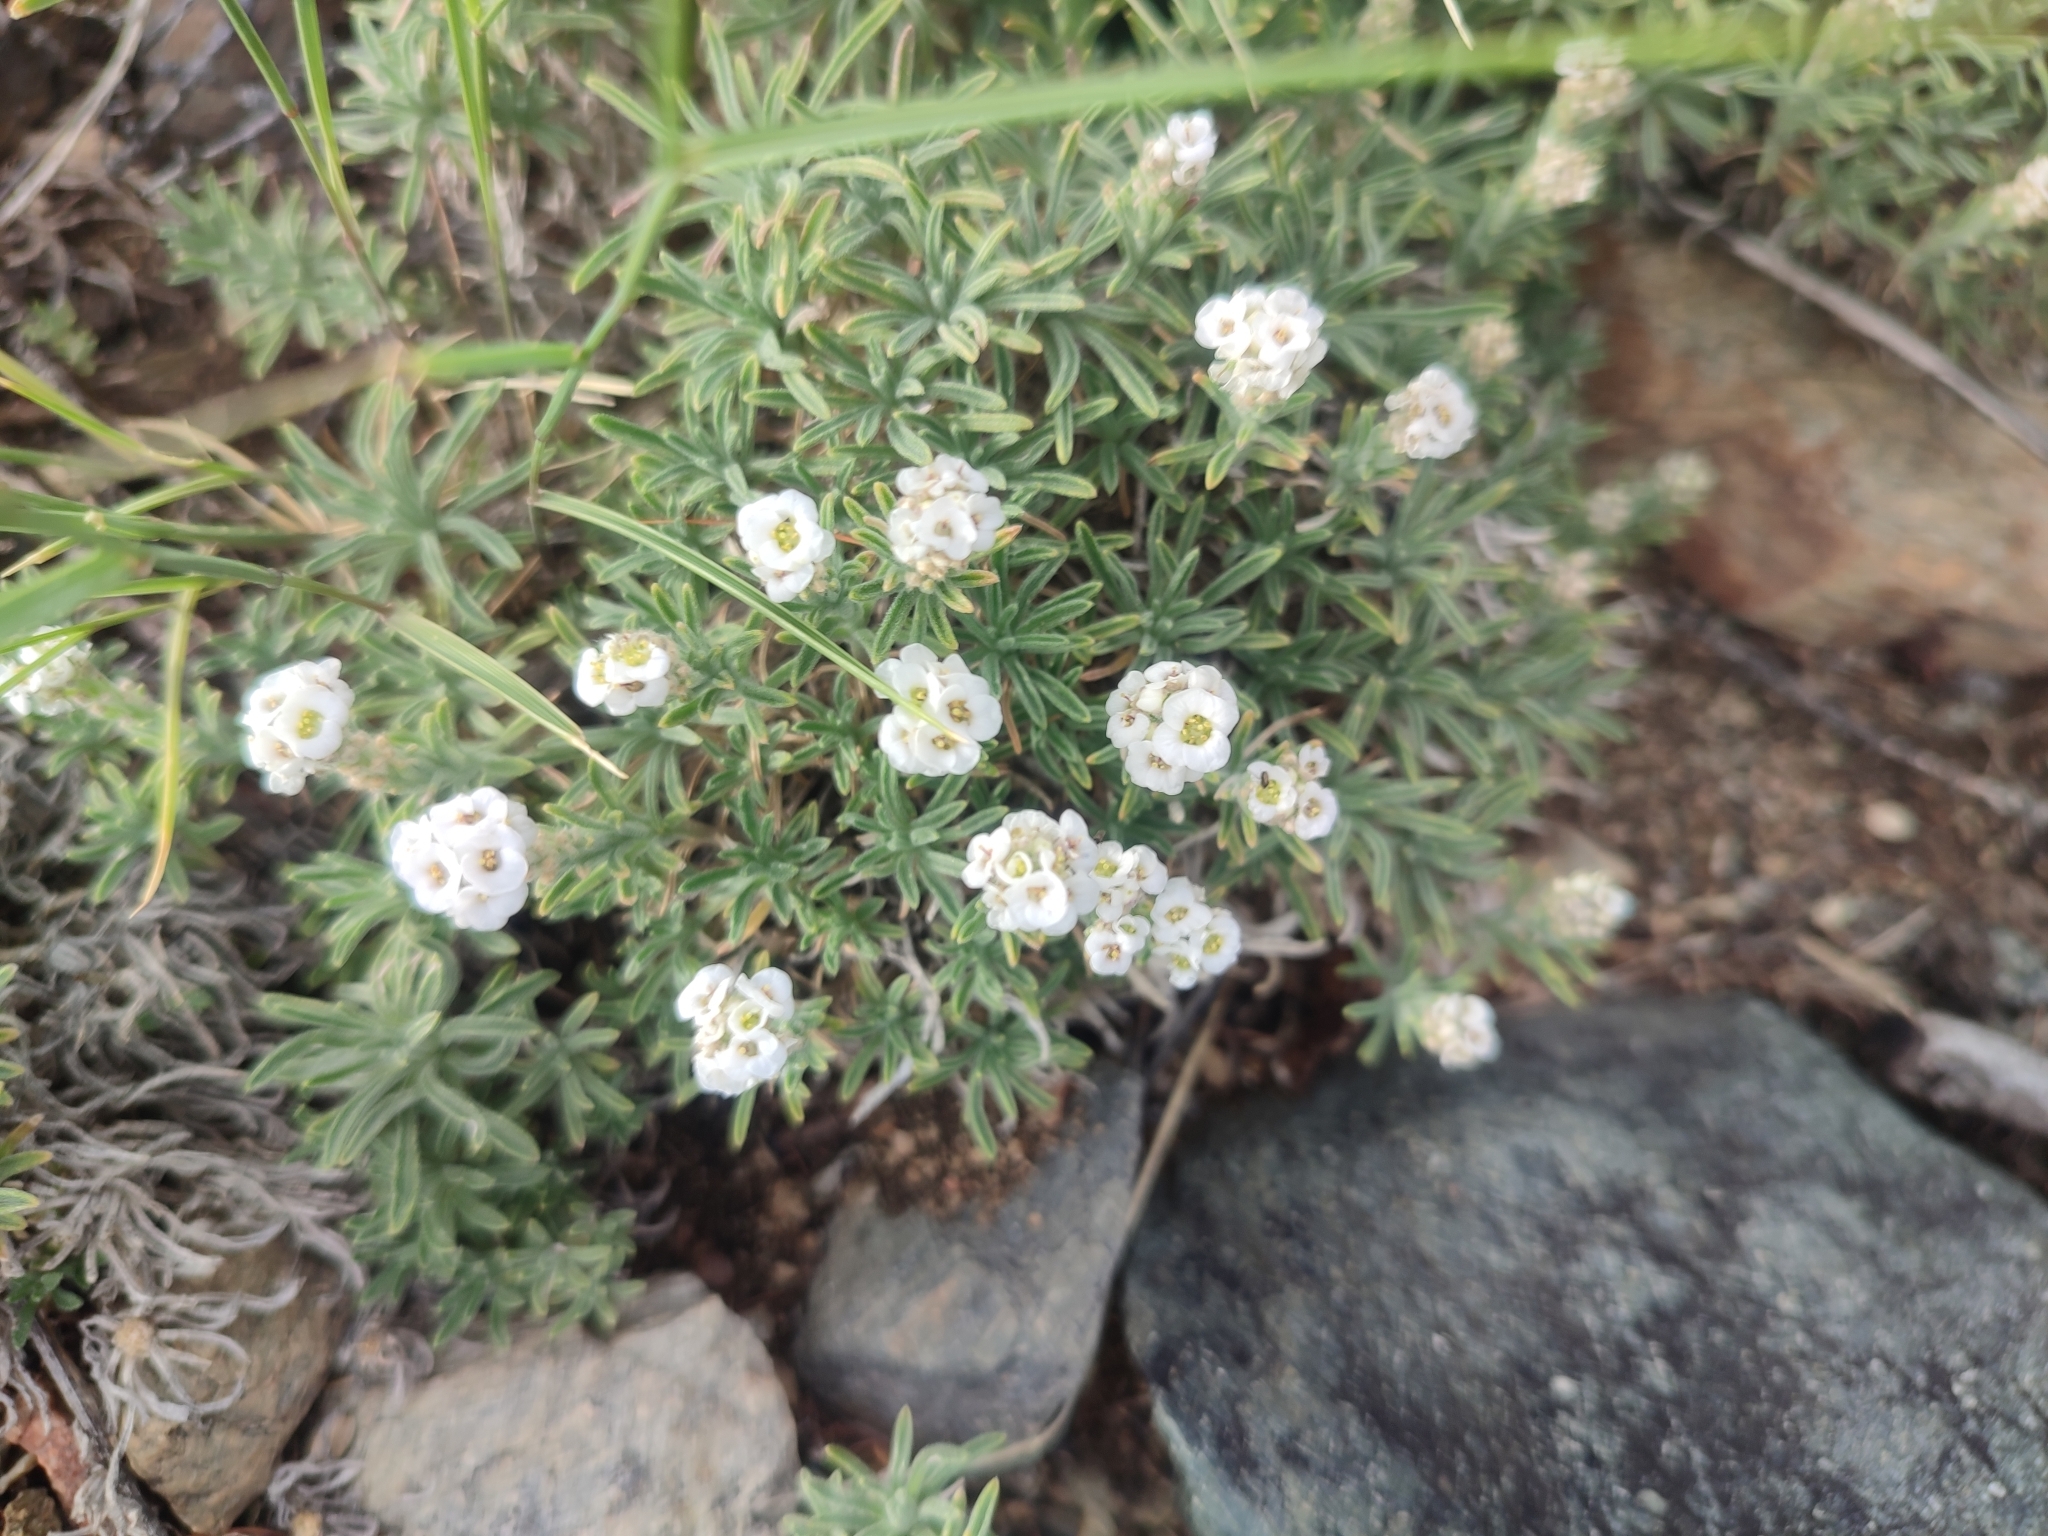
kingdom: Plantae
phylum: Tracheophyta
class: Magnoliopsida
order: Brassicales
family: Brassicaceae
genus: Stevenia
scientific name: Stevenia tenuifolia
